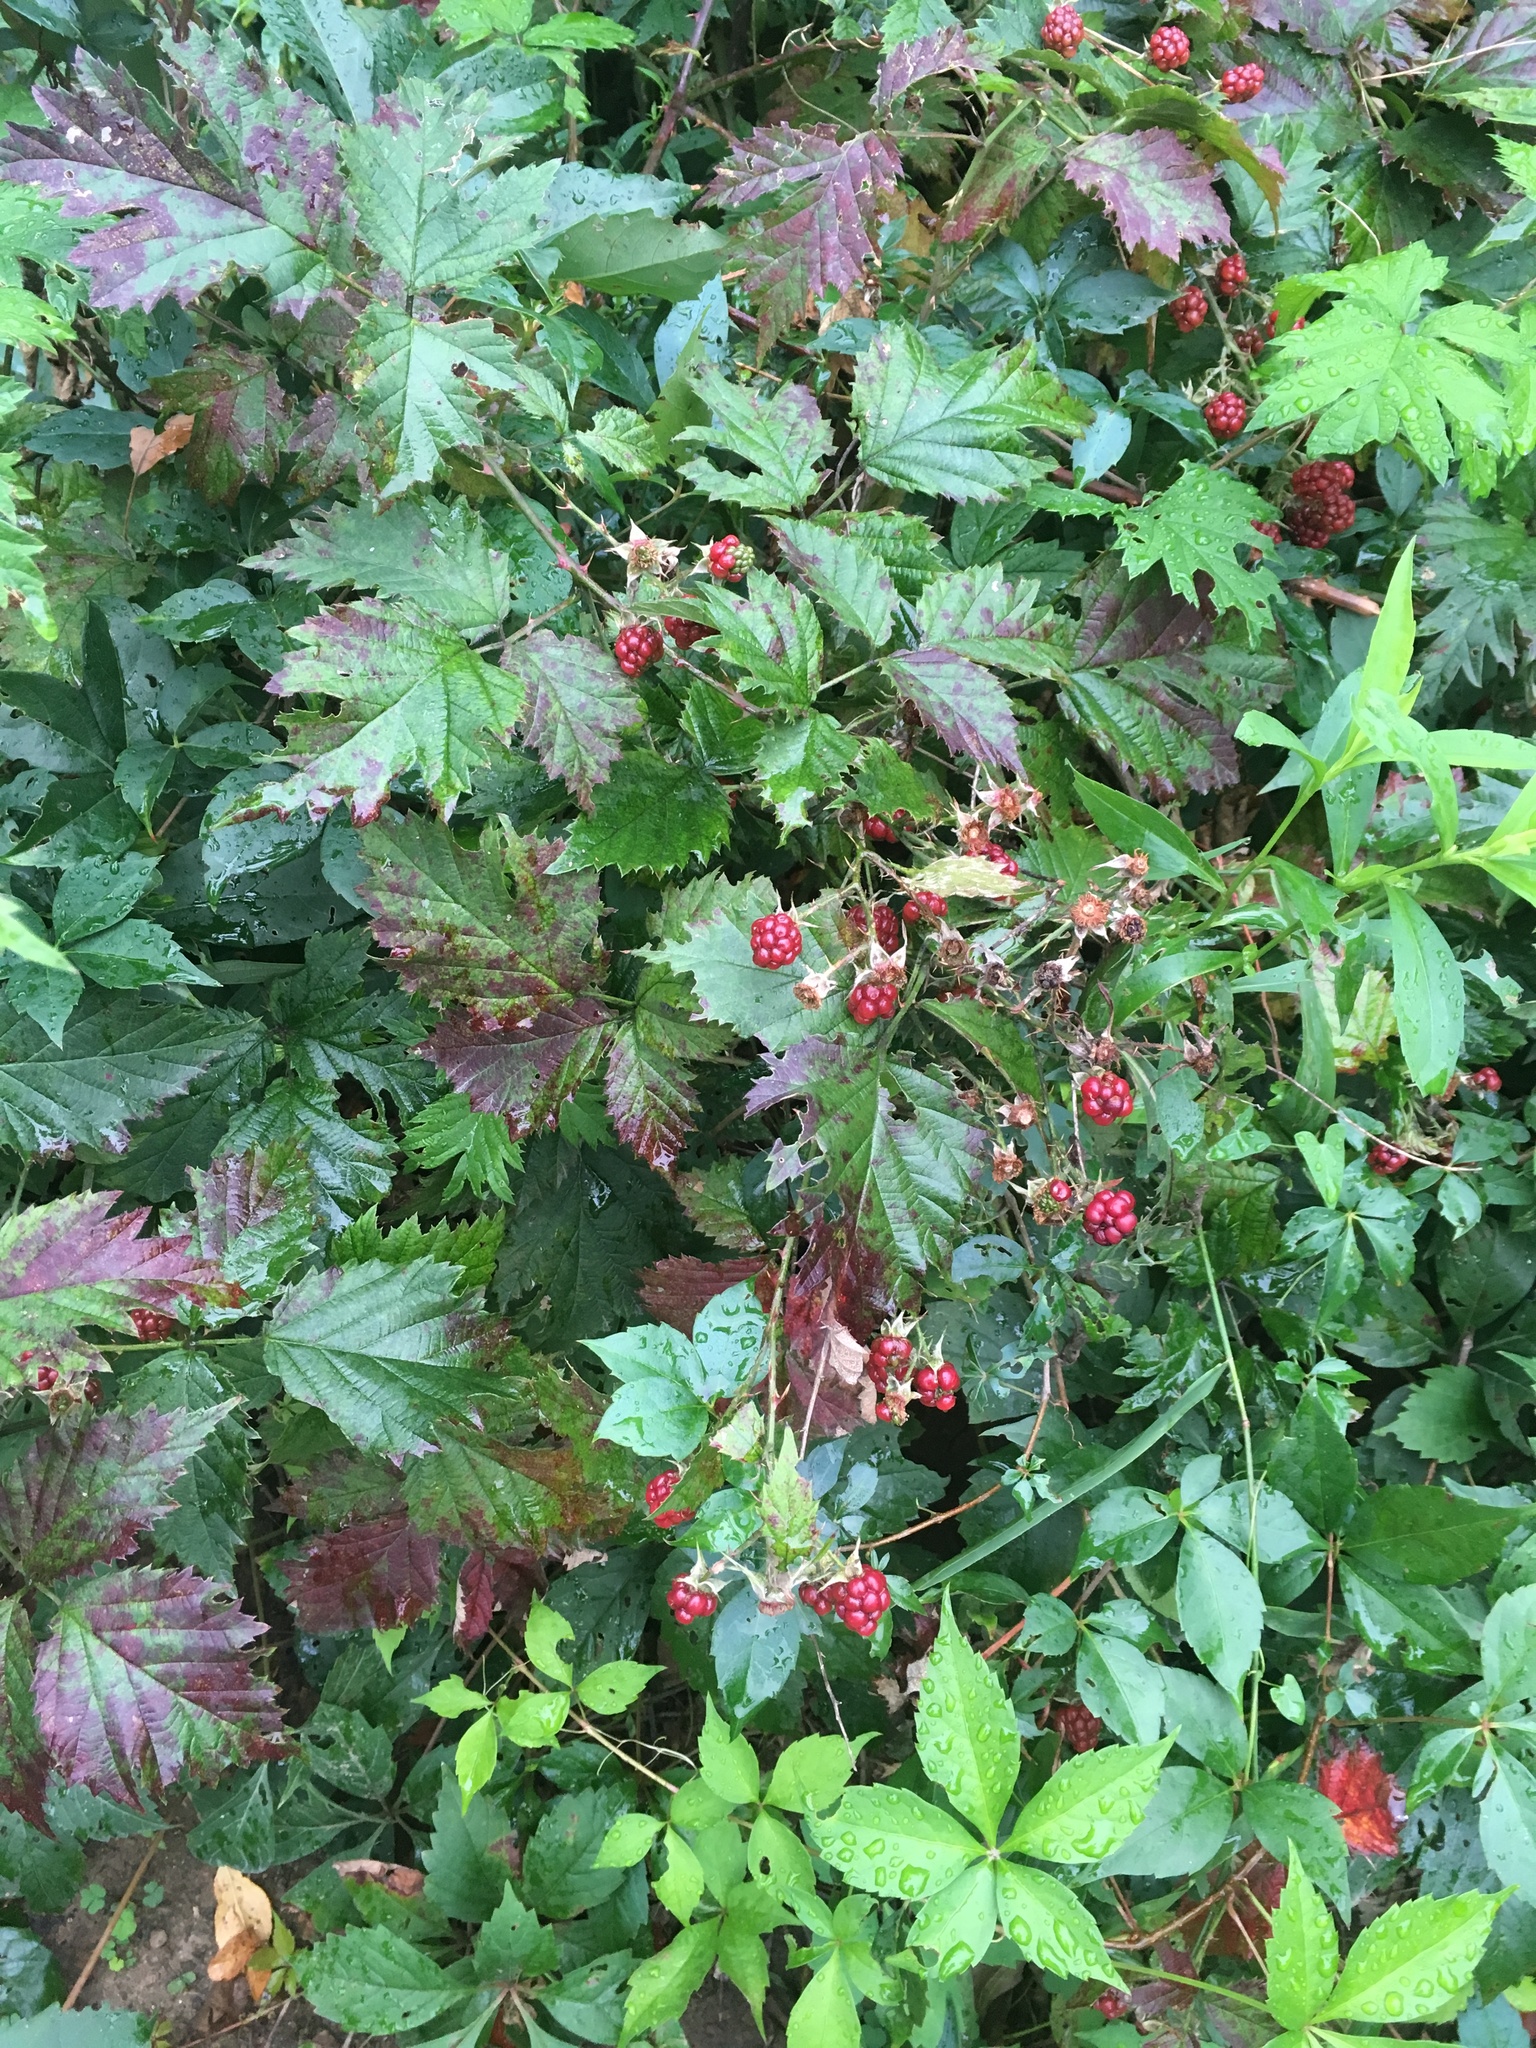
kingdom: Plantae
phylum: Tracheophyta
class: Magnoliopsida
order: Rosales
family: Rosaceae
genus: Rubus
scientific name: Rubus laciniatus
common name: Evergreen blackberry
